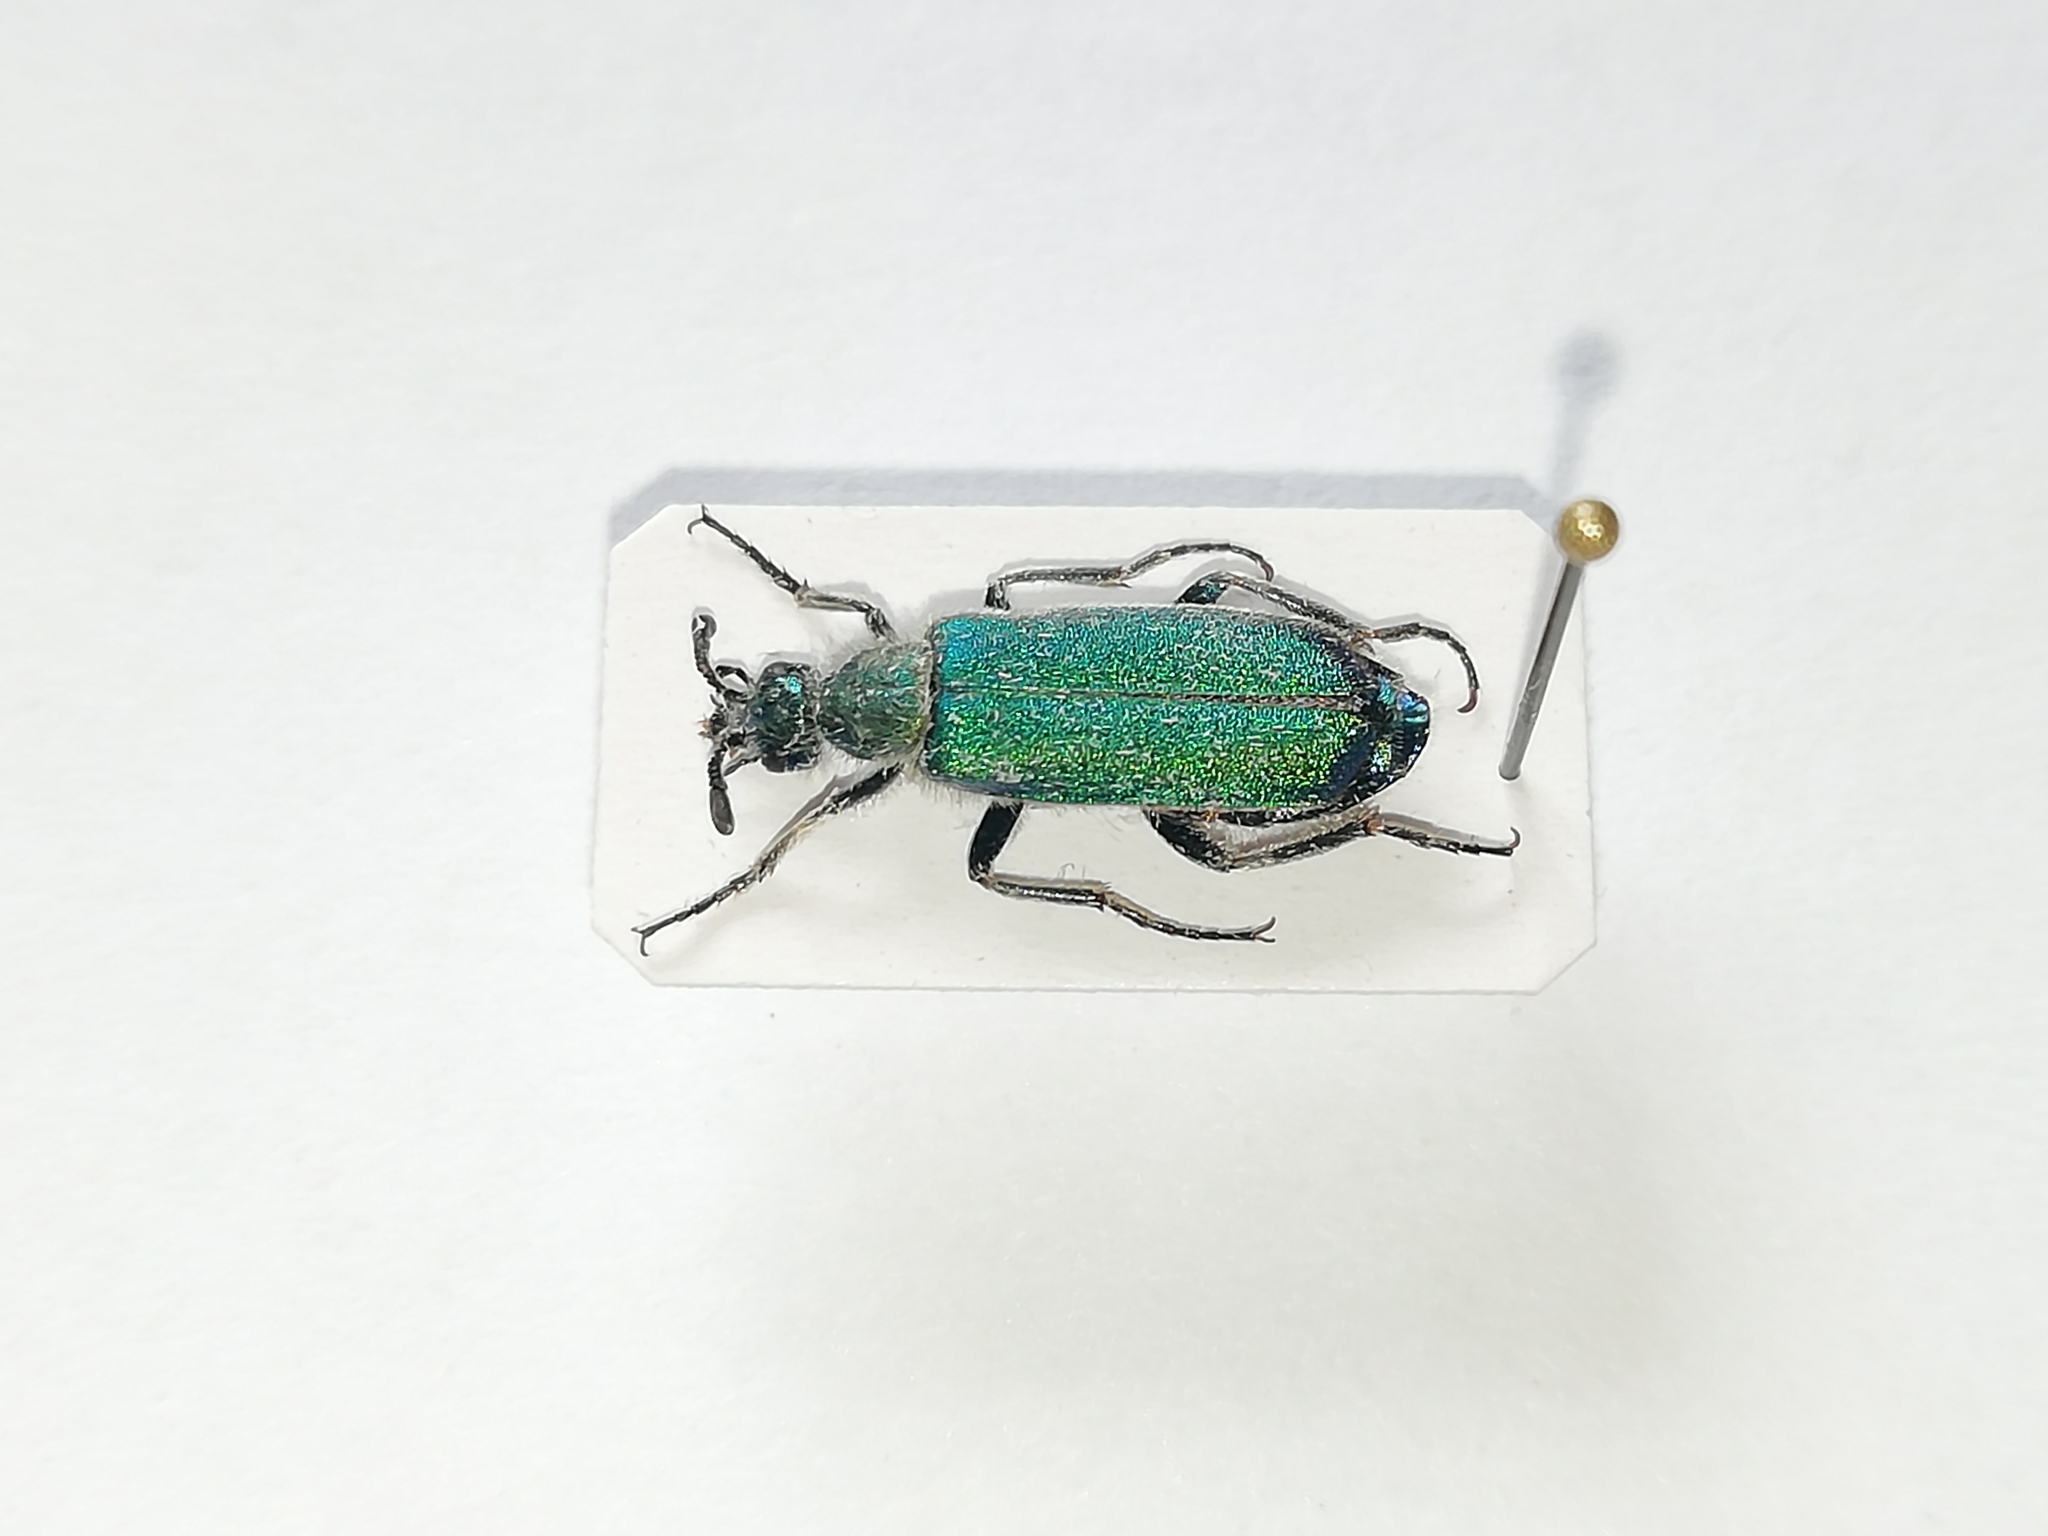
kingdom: Animalia
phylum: Arthropoda
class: Insecta
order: Coleoptera
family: Meloidae
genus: Cerocoma
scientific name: Cerocoma schreberi
